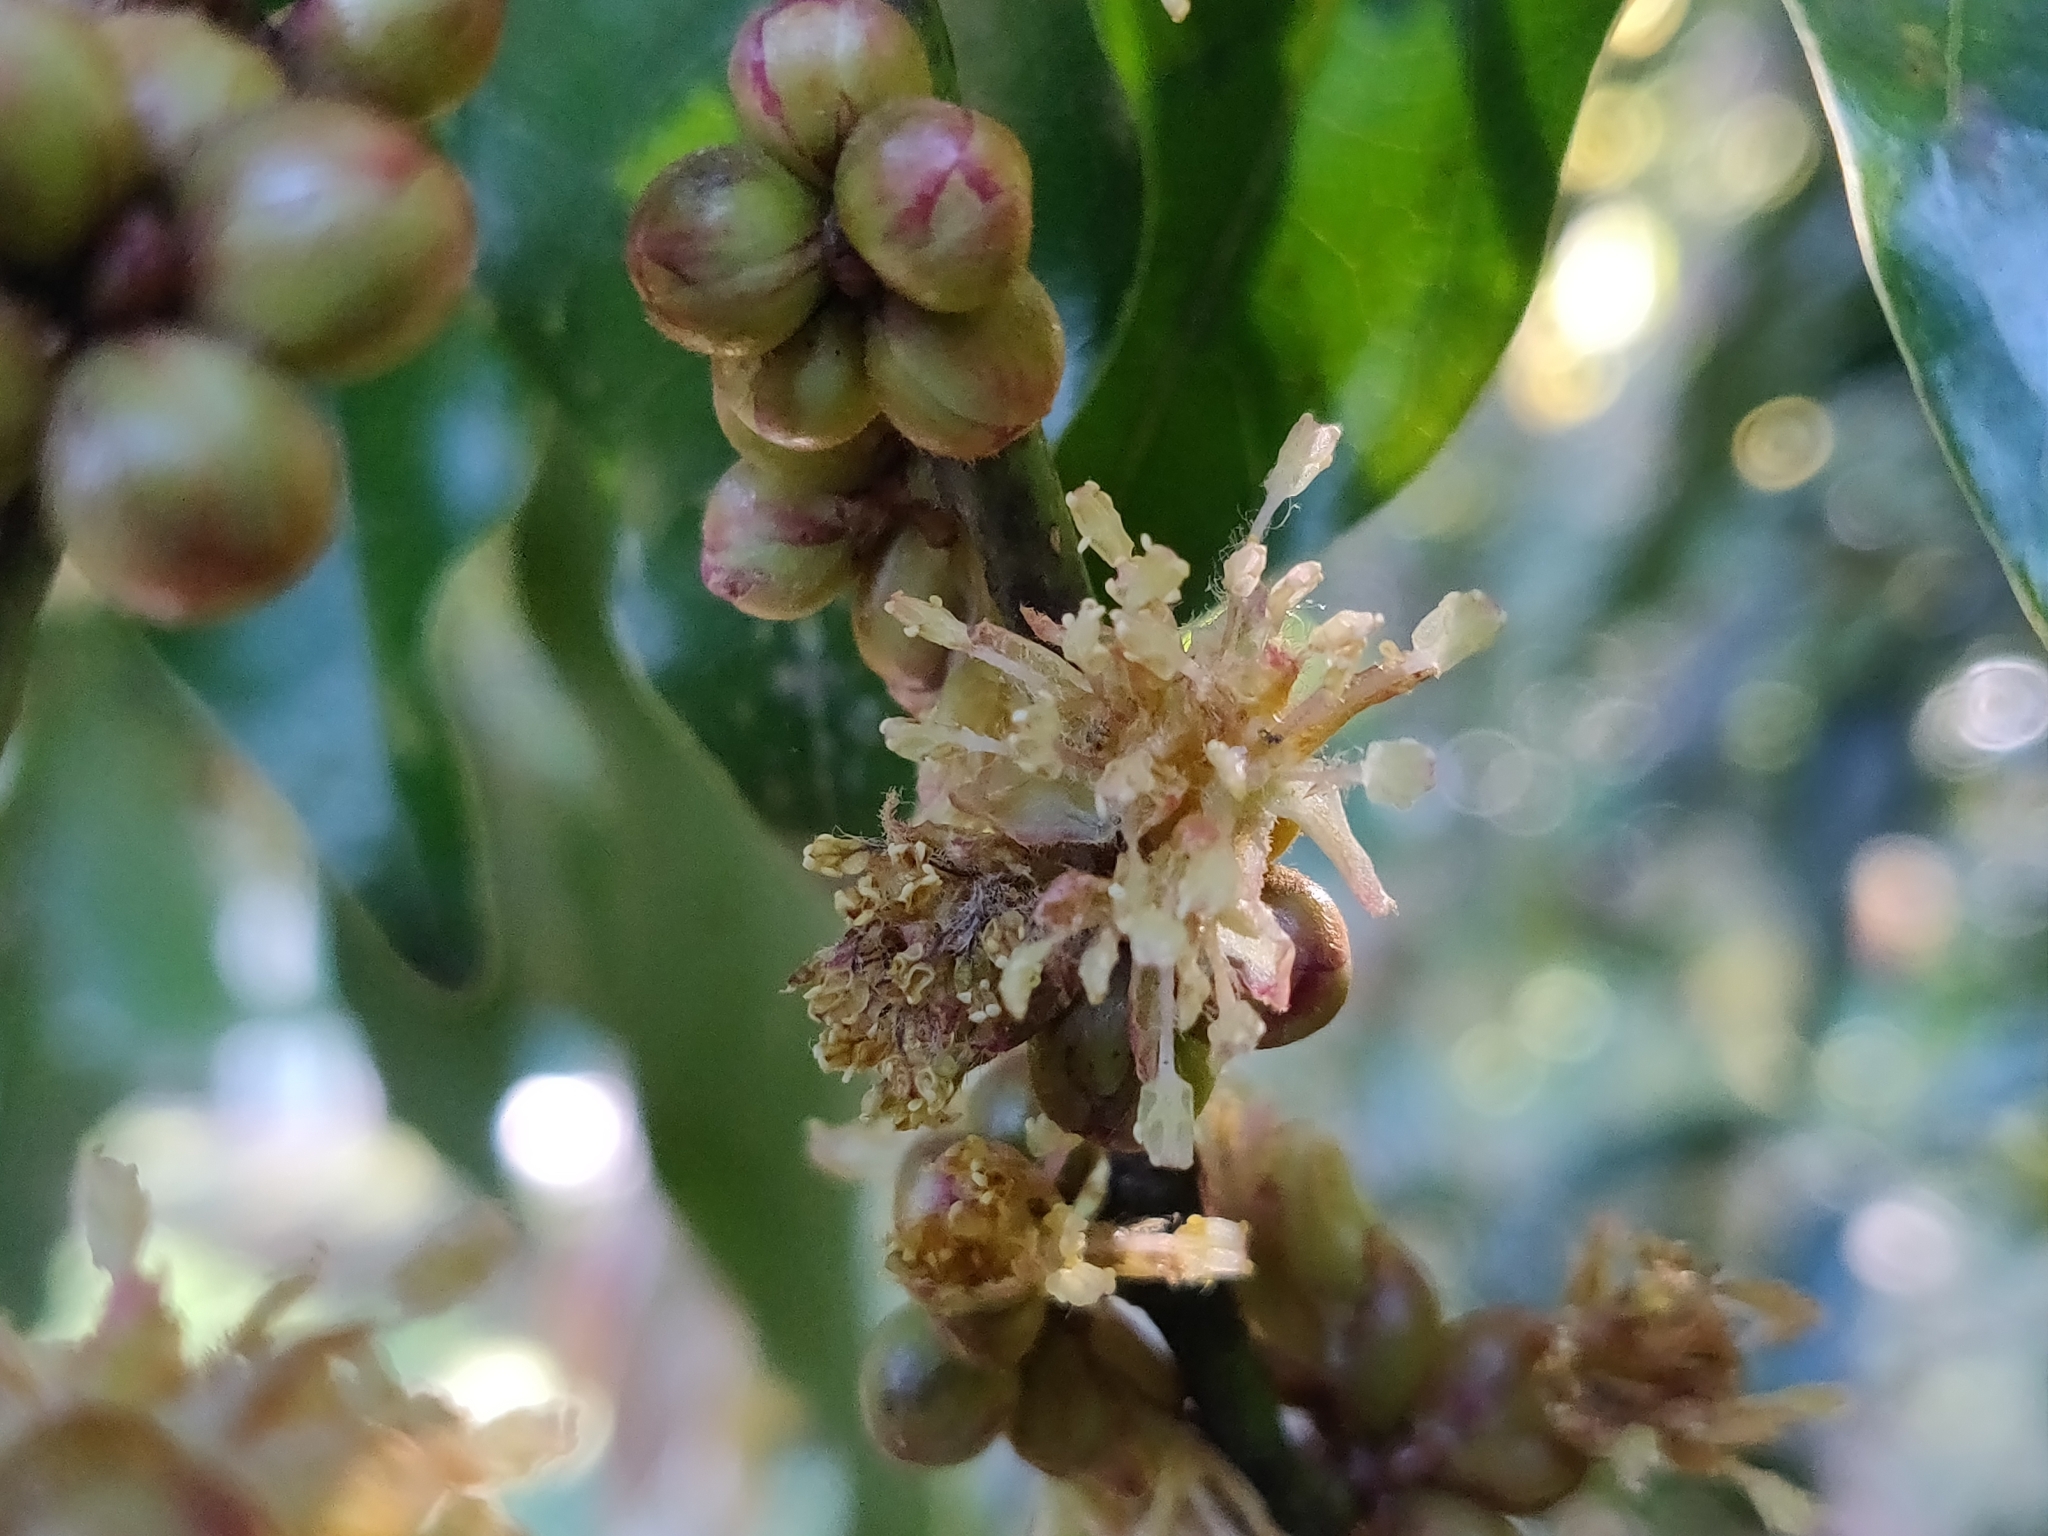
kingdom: Plantae
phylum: Tracheophyta
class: Magnoliopsida
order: Laurales
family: Lauraceae
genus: Neolitsea
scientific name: Neolitsea foliosa
